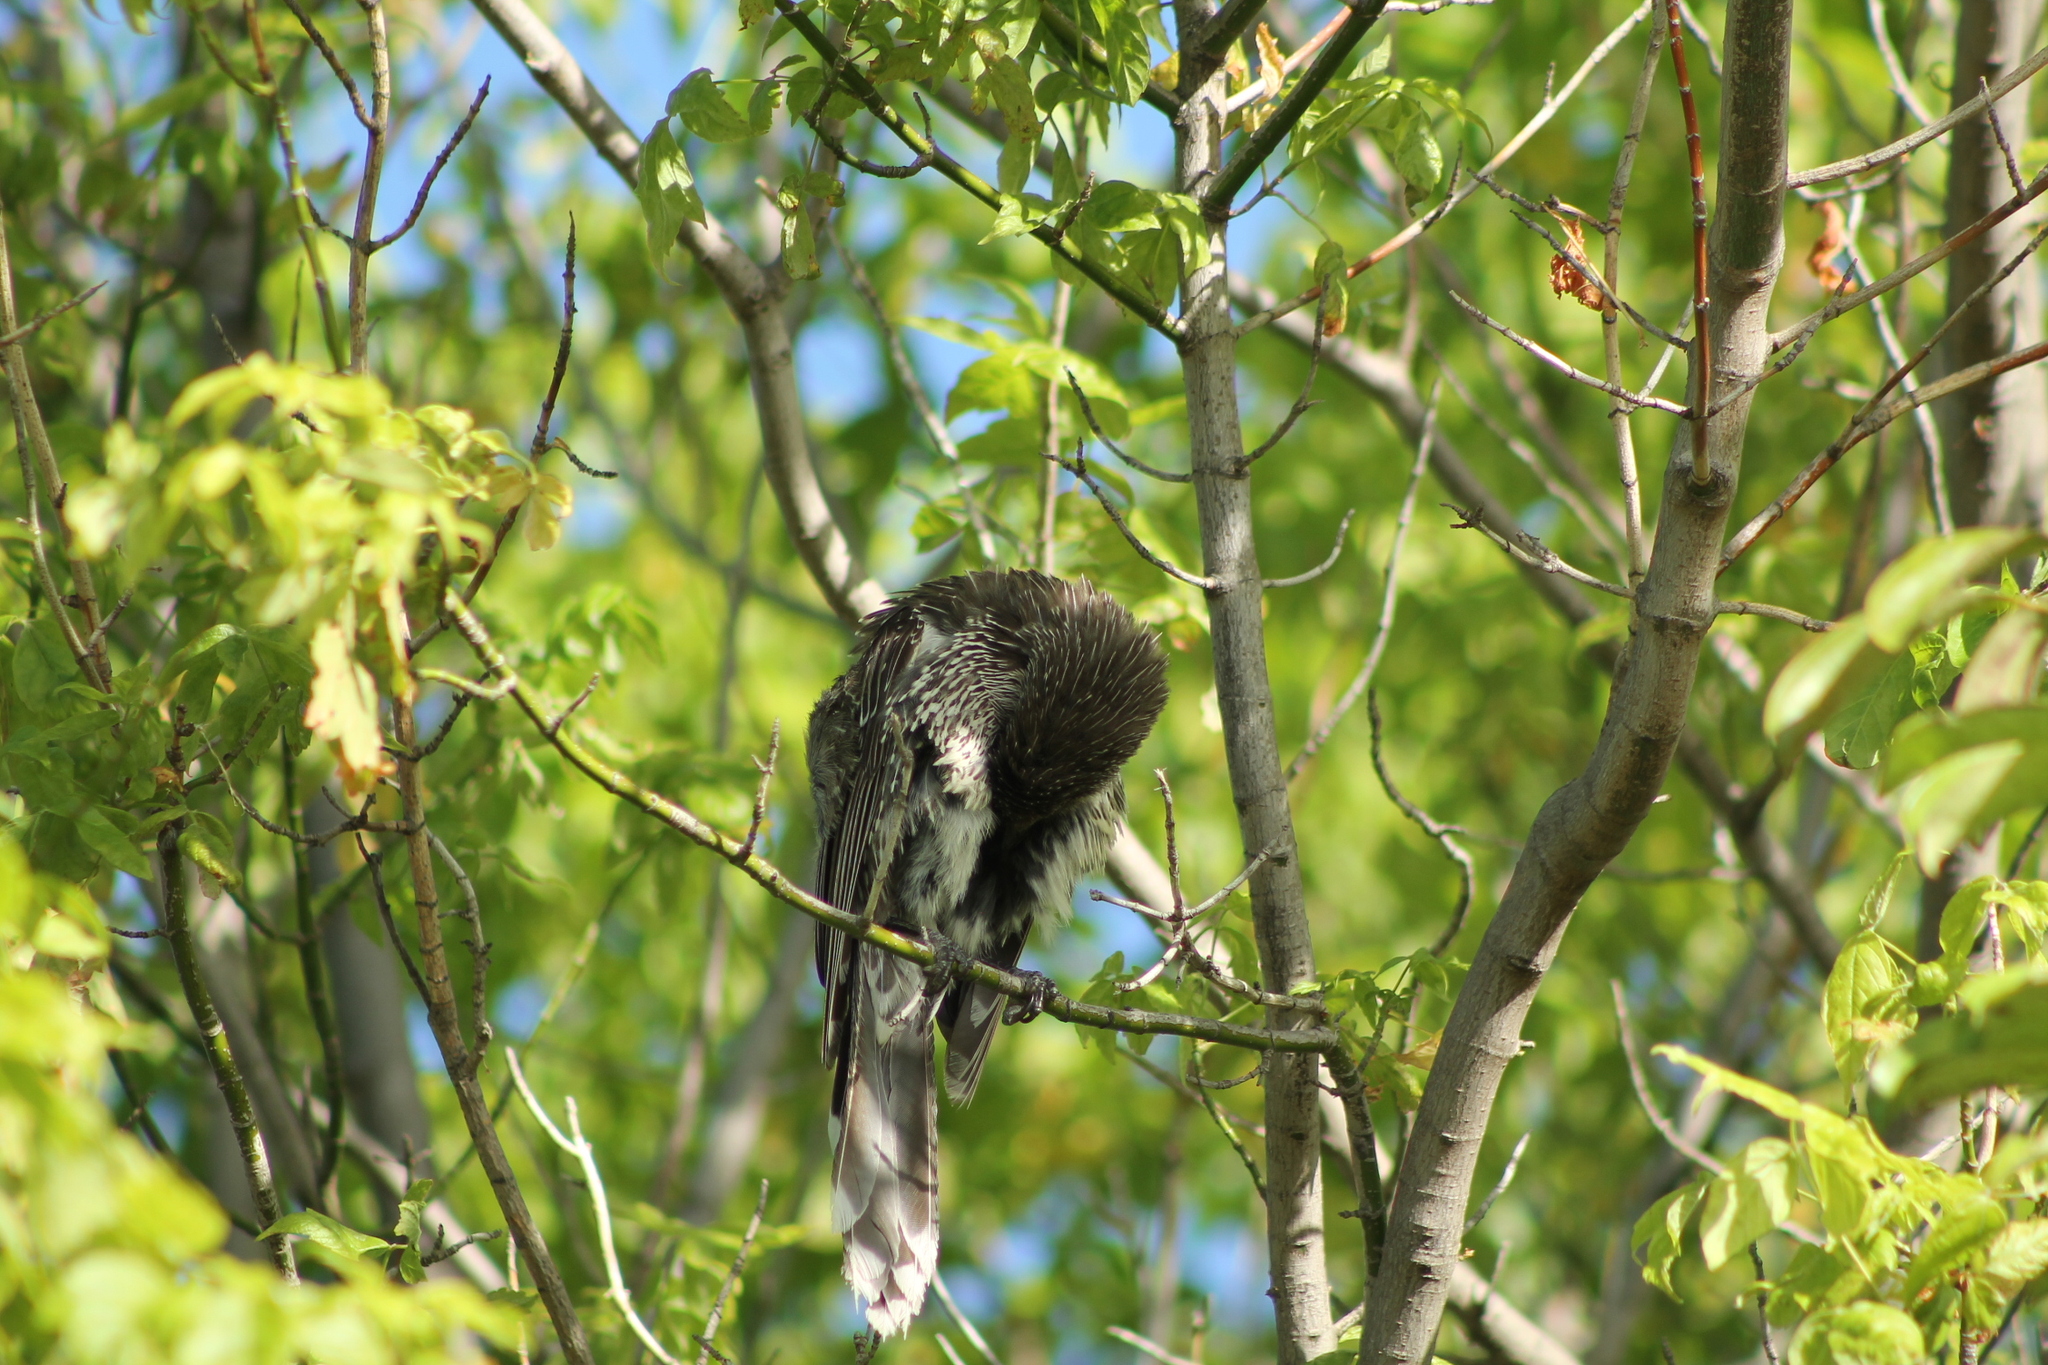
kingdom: Animalia
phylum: Chordata
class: Aves
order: Passeriformes
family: Meliphagidae
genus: Anthochaera
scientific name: Anthochaera chrysoptera
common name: Little wattlebird
